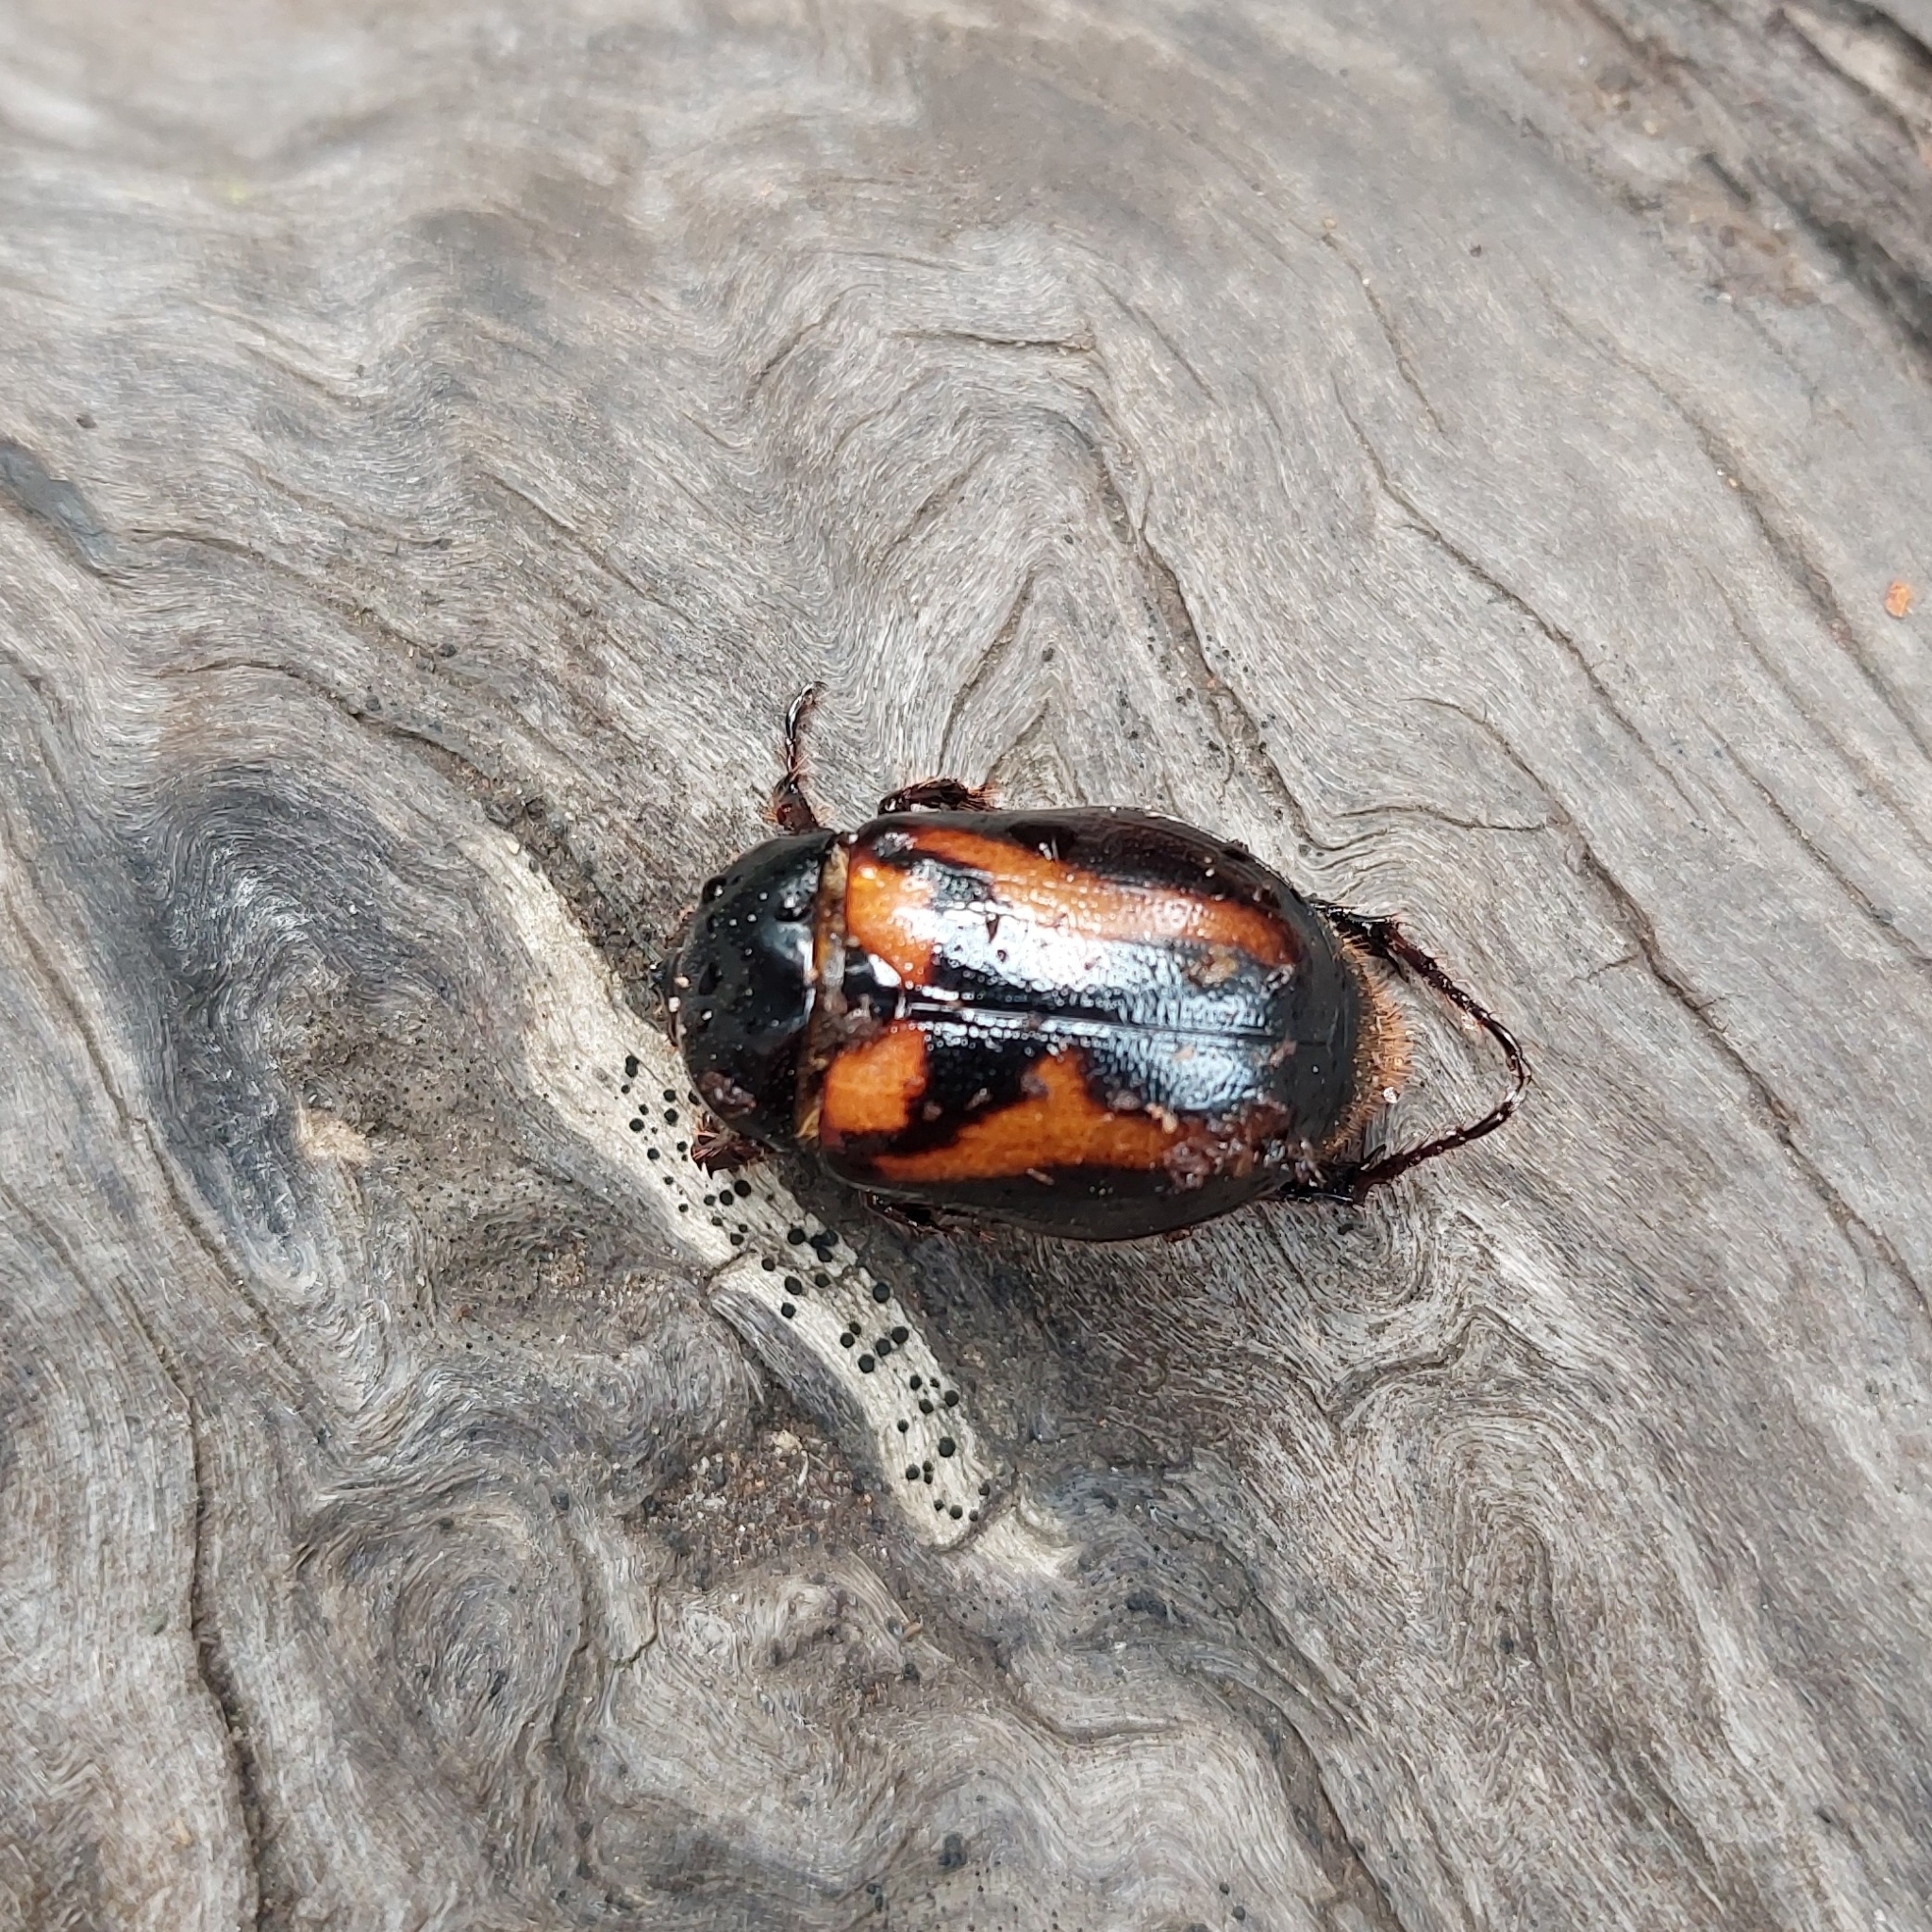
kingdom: Animalia
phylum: Arthropoda
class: Insecta
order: Coleoptera
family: Scarabaeidae
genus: Oryctomorphus
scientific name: Oryctomorphus bimaculatus
